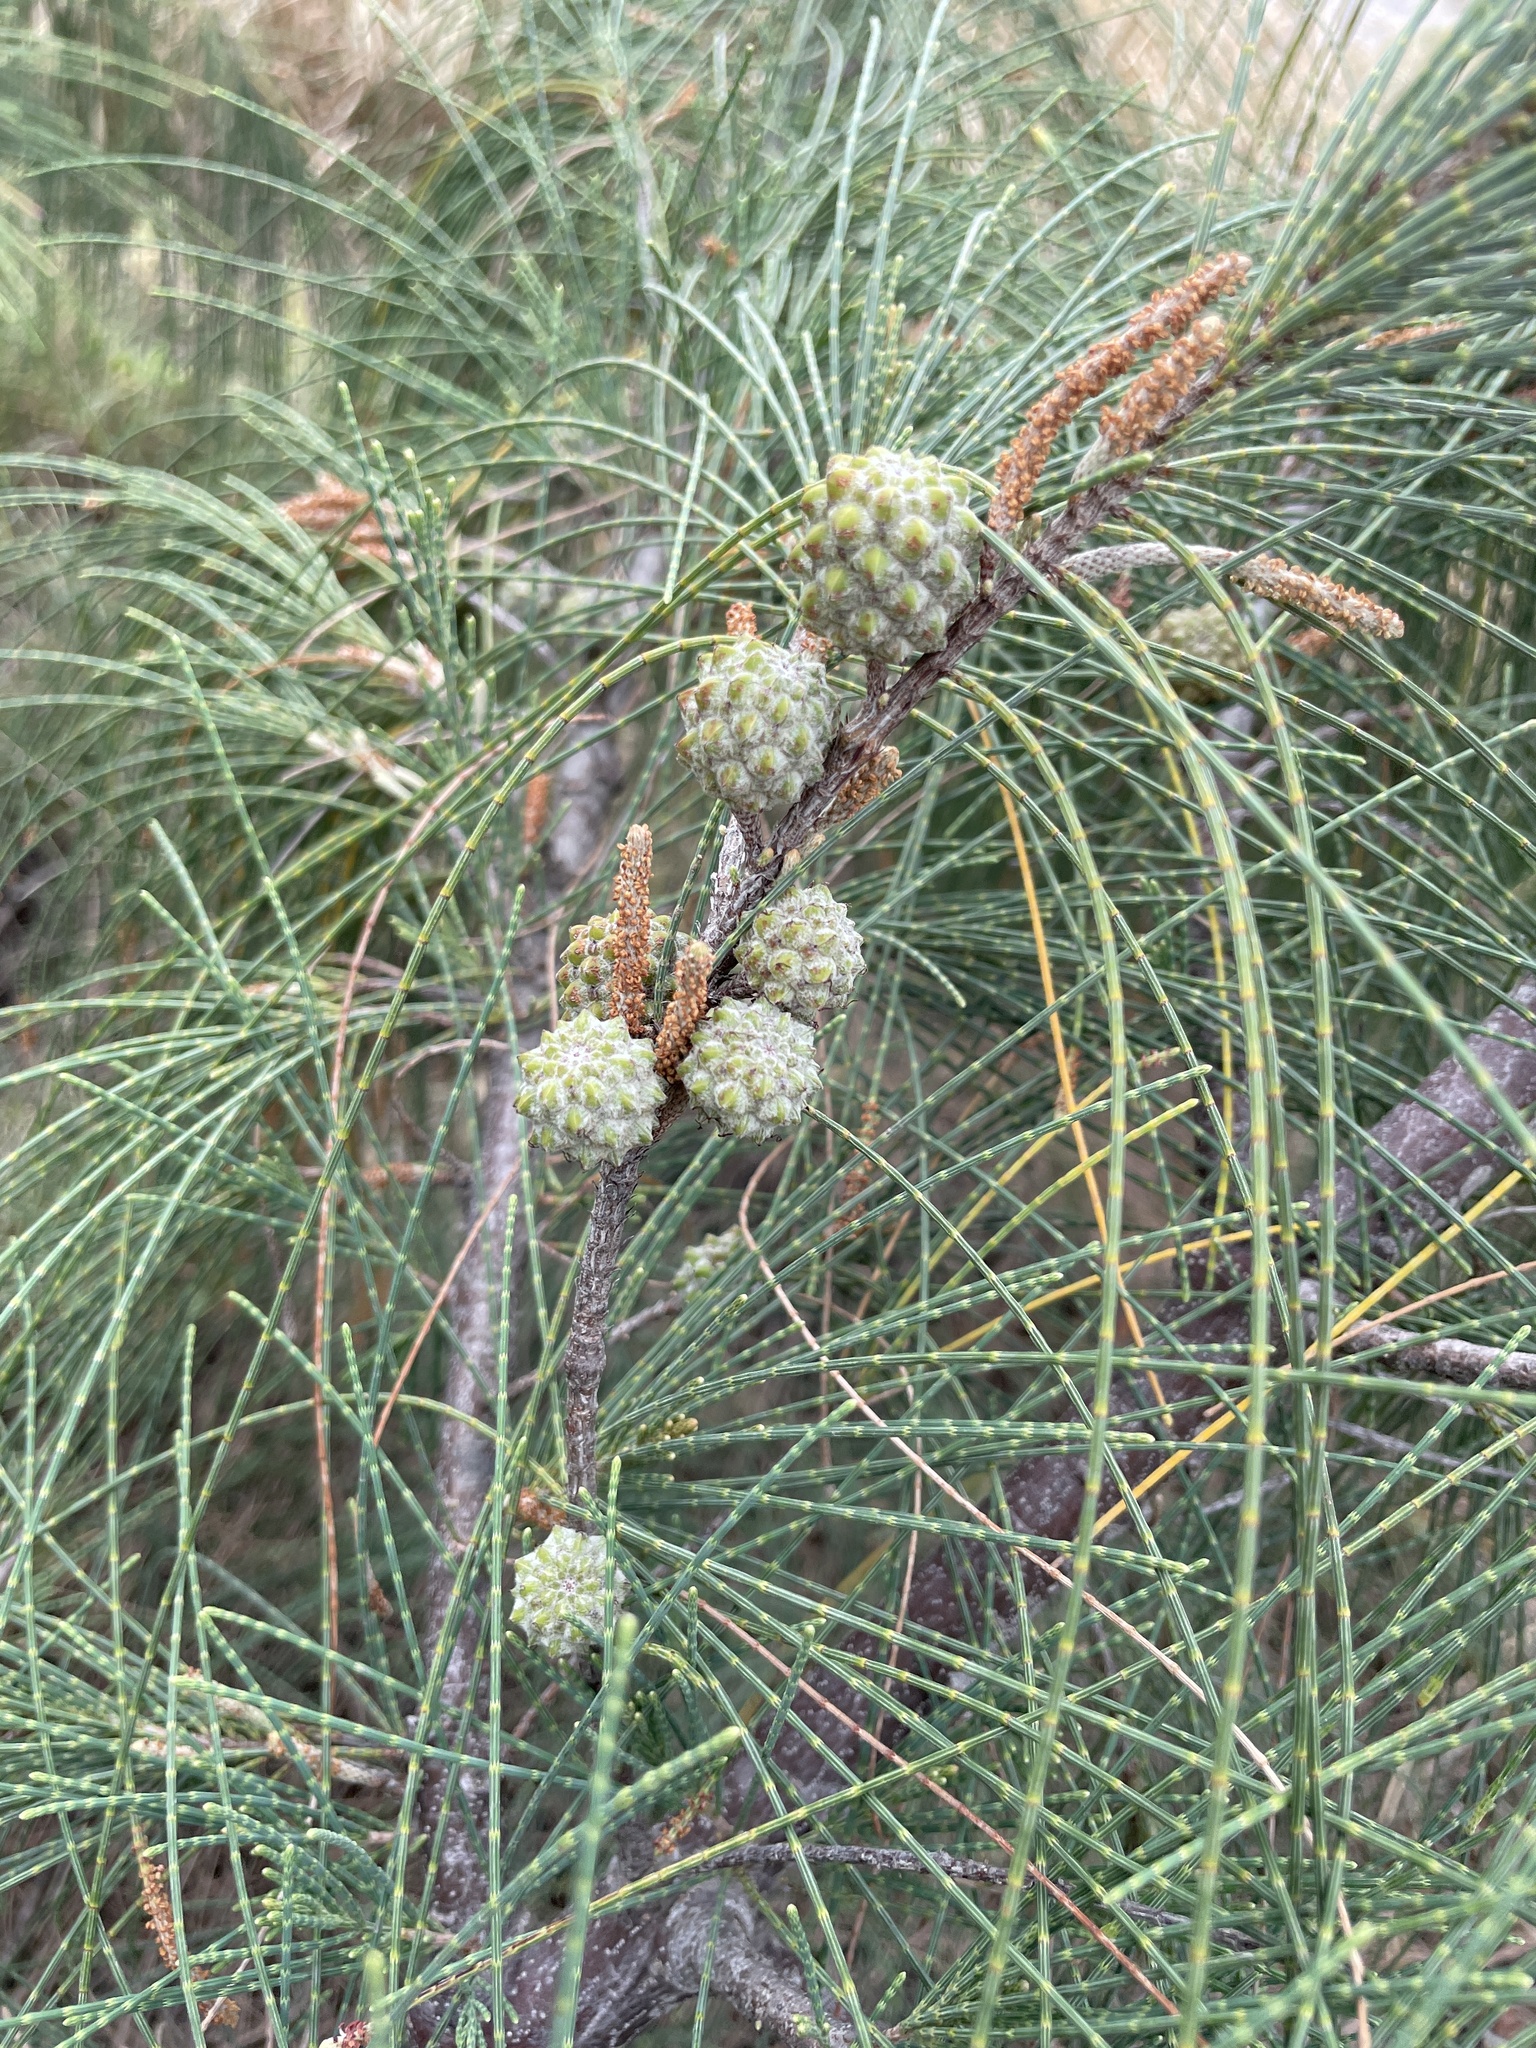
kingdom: Plantae
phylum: Tracheophyta
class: Magnoliopsida
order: Fagales
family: Casuarinaceae
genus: Casuarina
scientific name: Casuarina equisetifolia
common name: Beach sheoak
